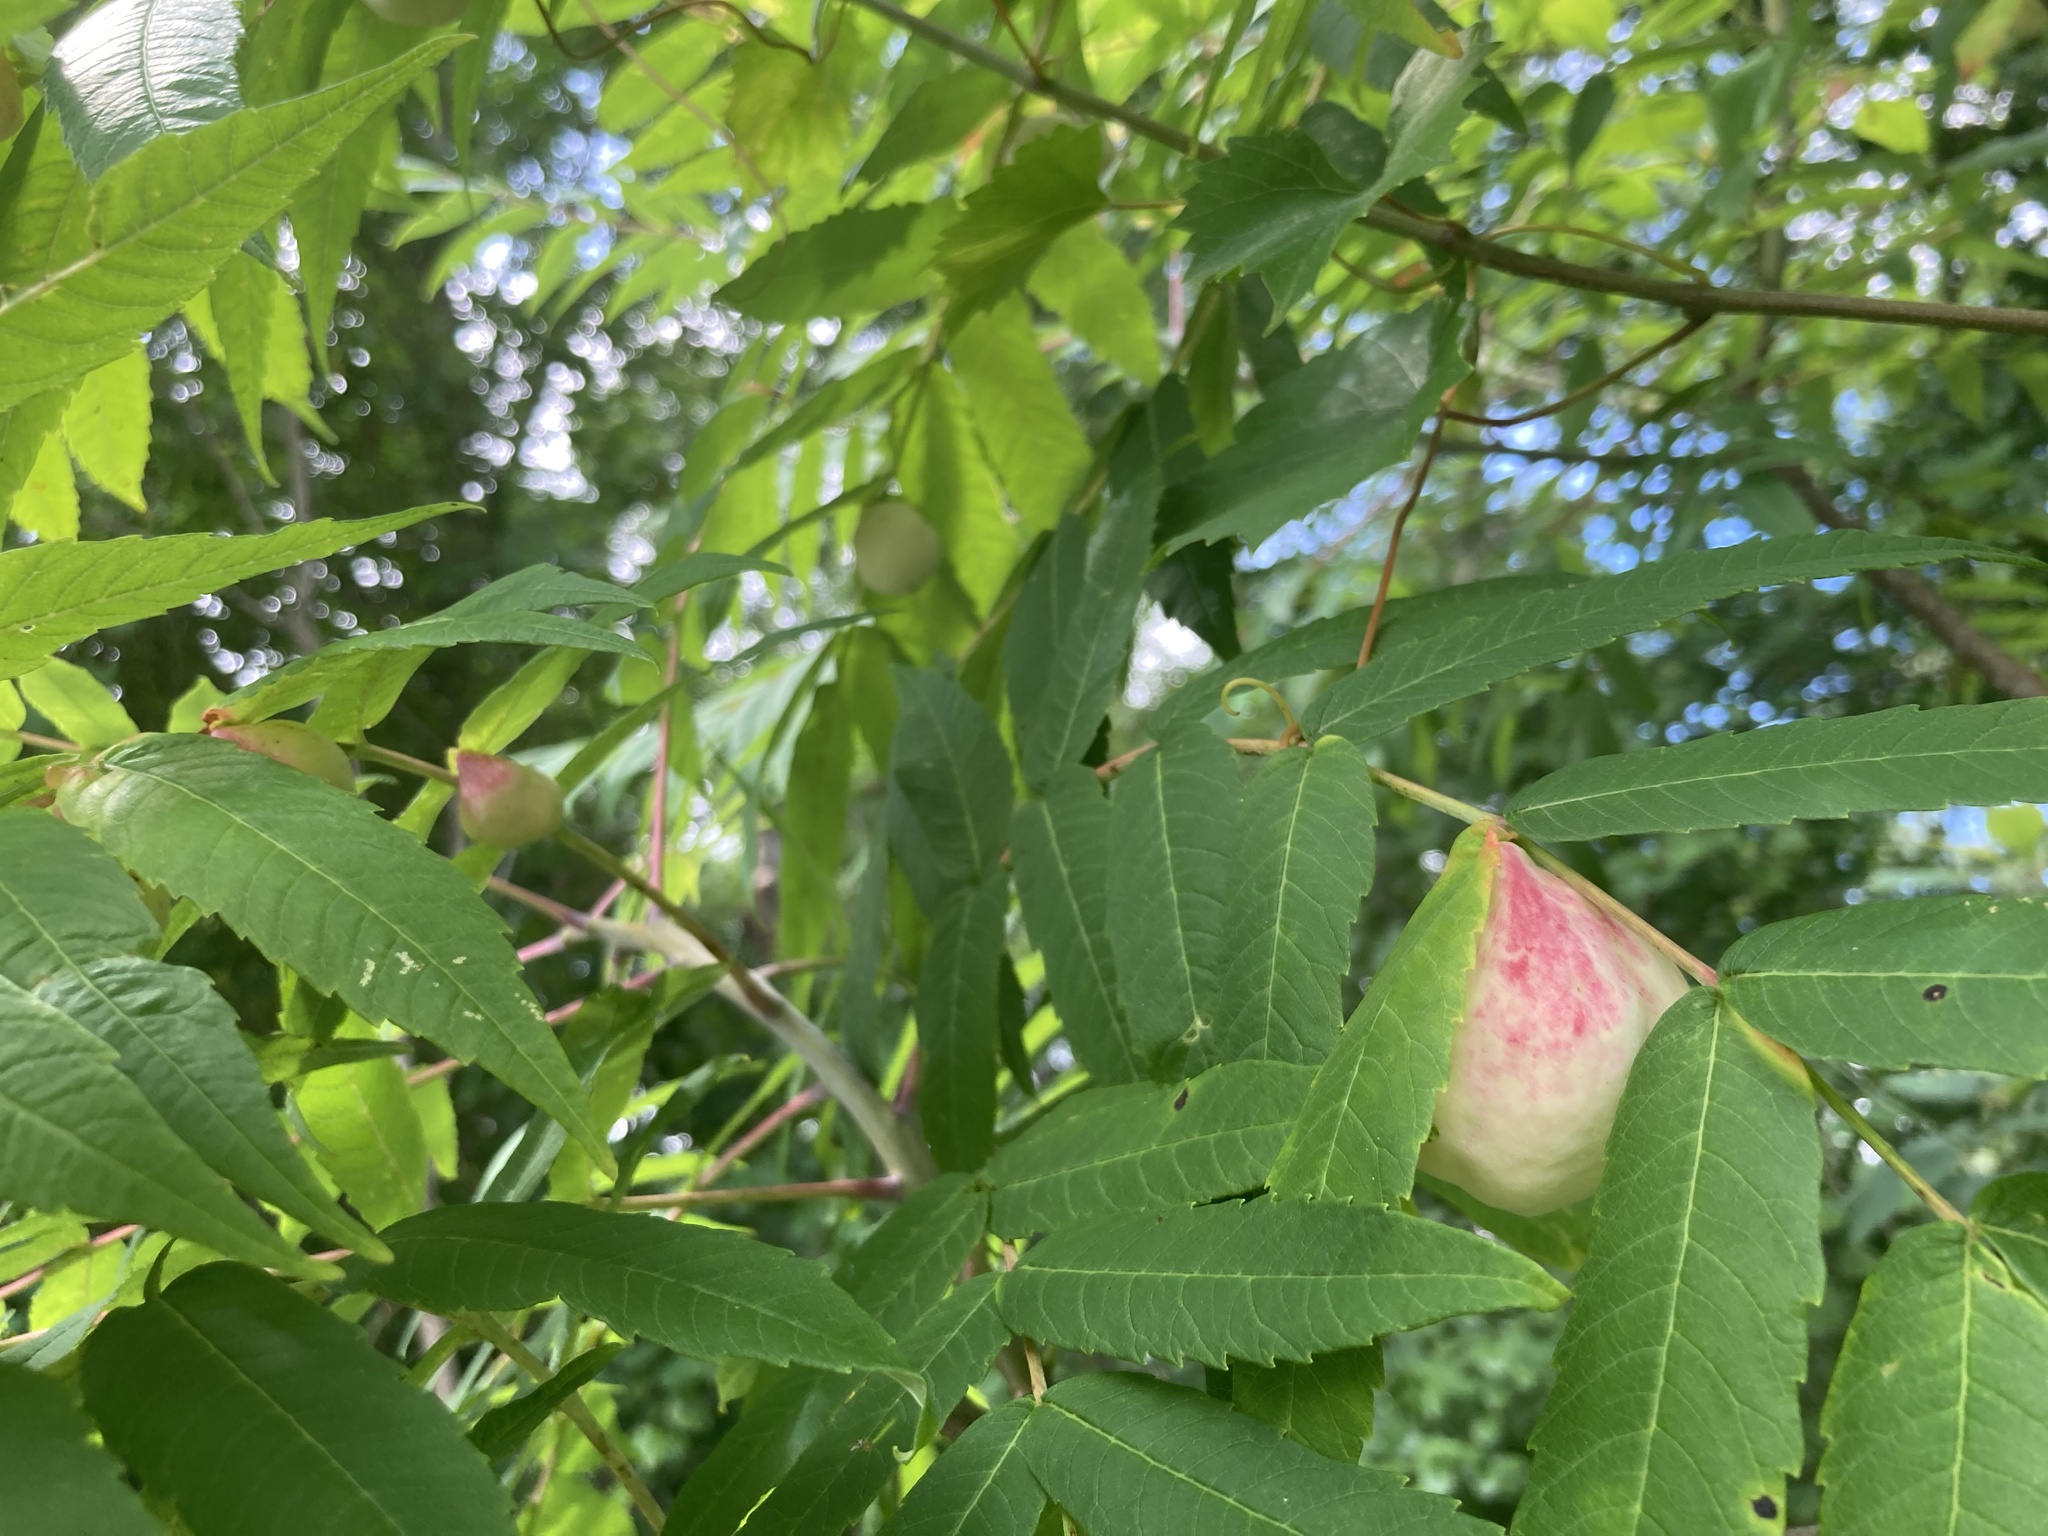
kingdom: Animalia
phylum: Arthropoda
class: Insecta
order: Hemiptera
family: Aphididae
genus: Melaphis
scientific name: Melaphis rhois
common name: Sumac gall aphid
